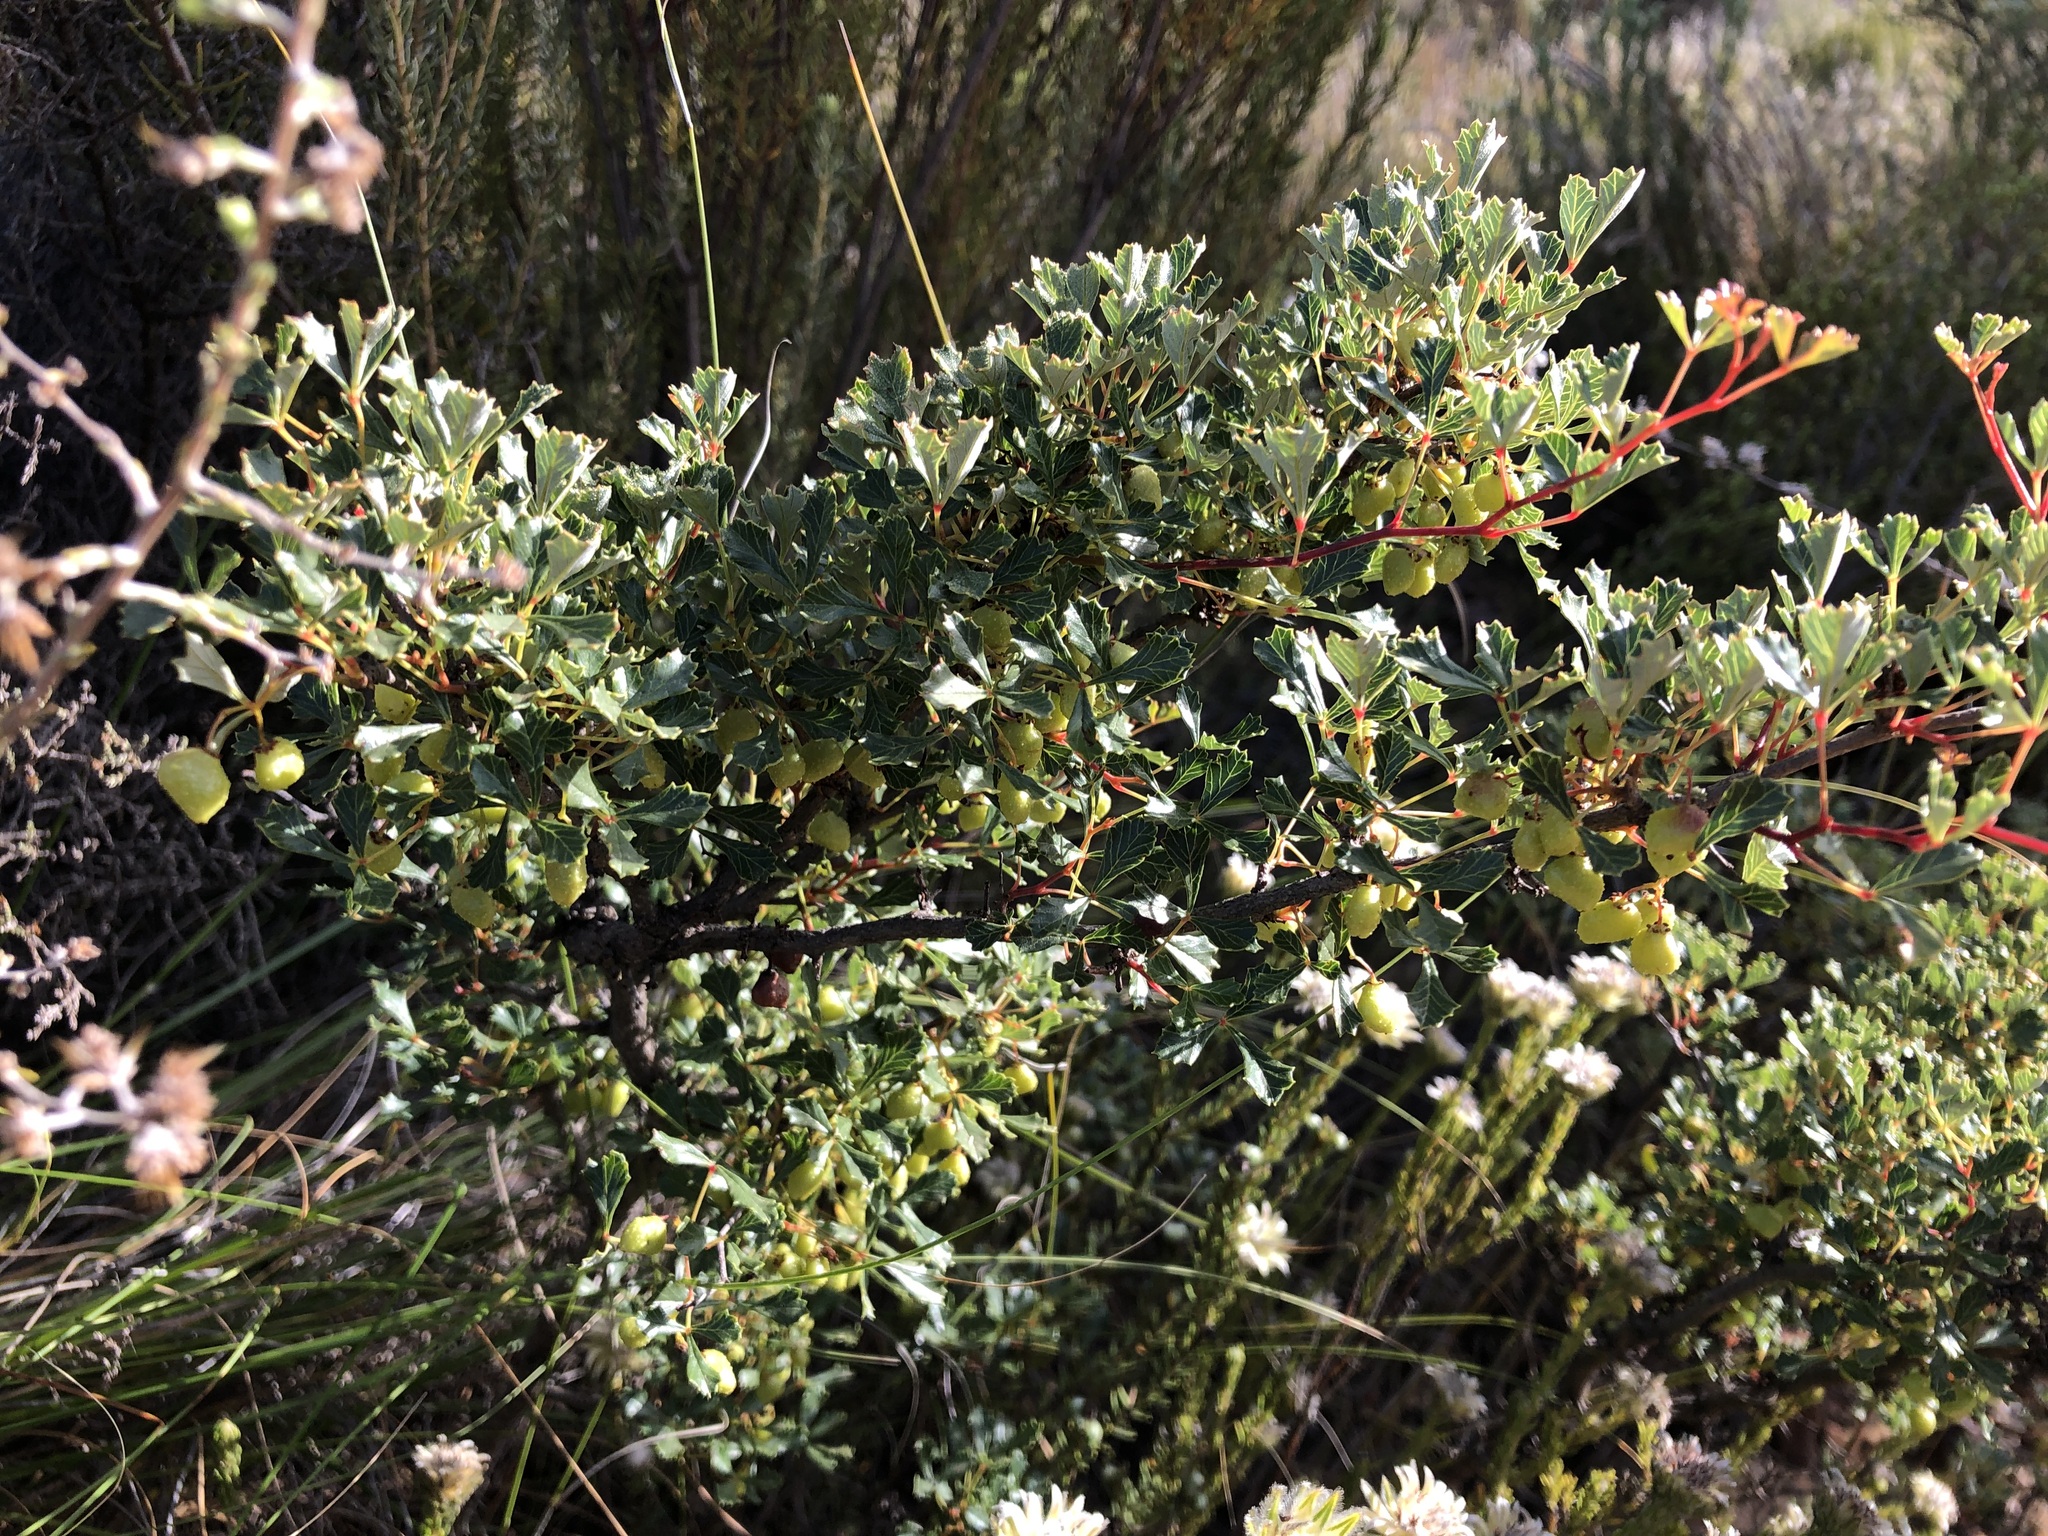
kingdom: Plantae
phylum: Tracheophyta
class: Magnoliopsida
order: Sapindales
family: Anacardiaceae
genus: Searsia
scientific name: Searsia dissecta
